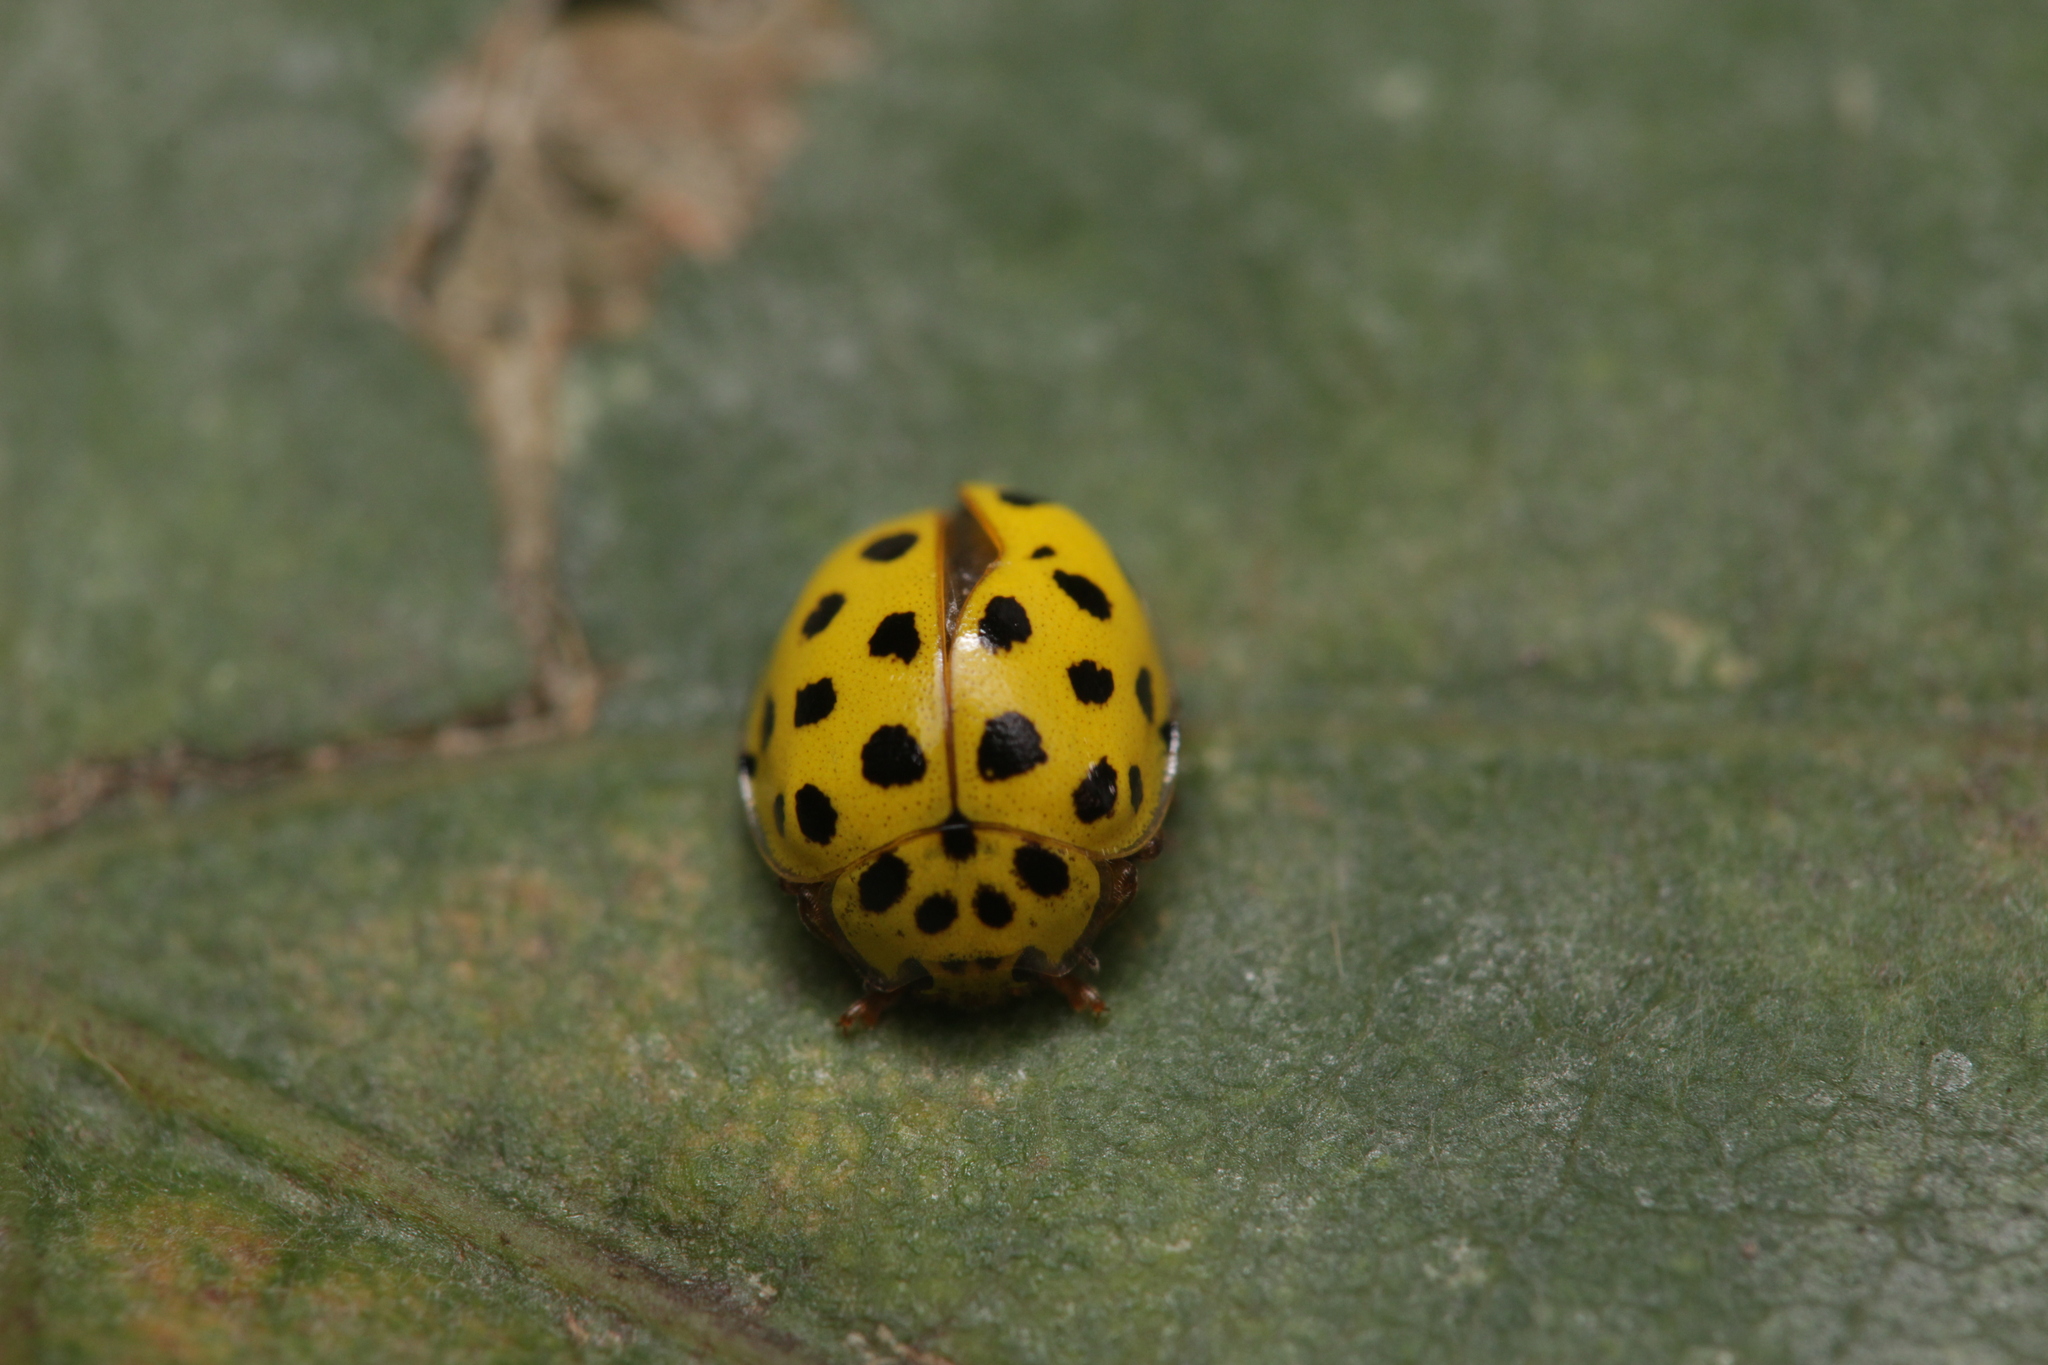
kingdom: Animalia
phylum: Arthropoda
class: Insecta
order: Coleoptera
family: Coccinellidae
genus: Psyllobora
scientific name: Psyllobora vigintiduopunctata
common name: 22-spot ladybird
